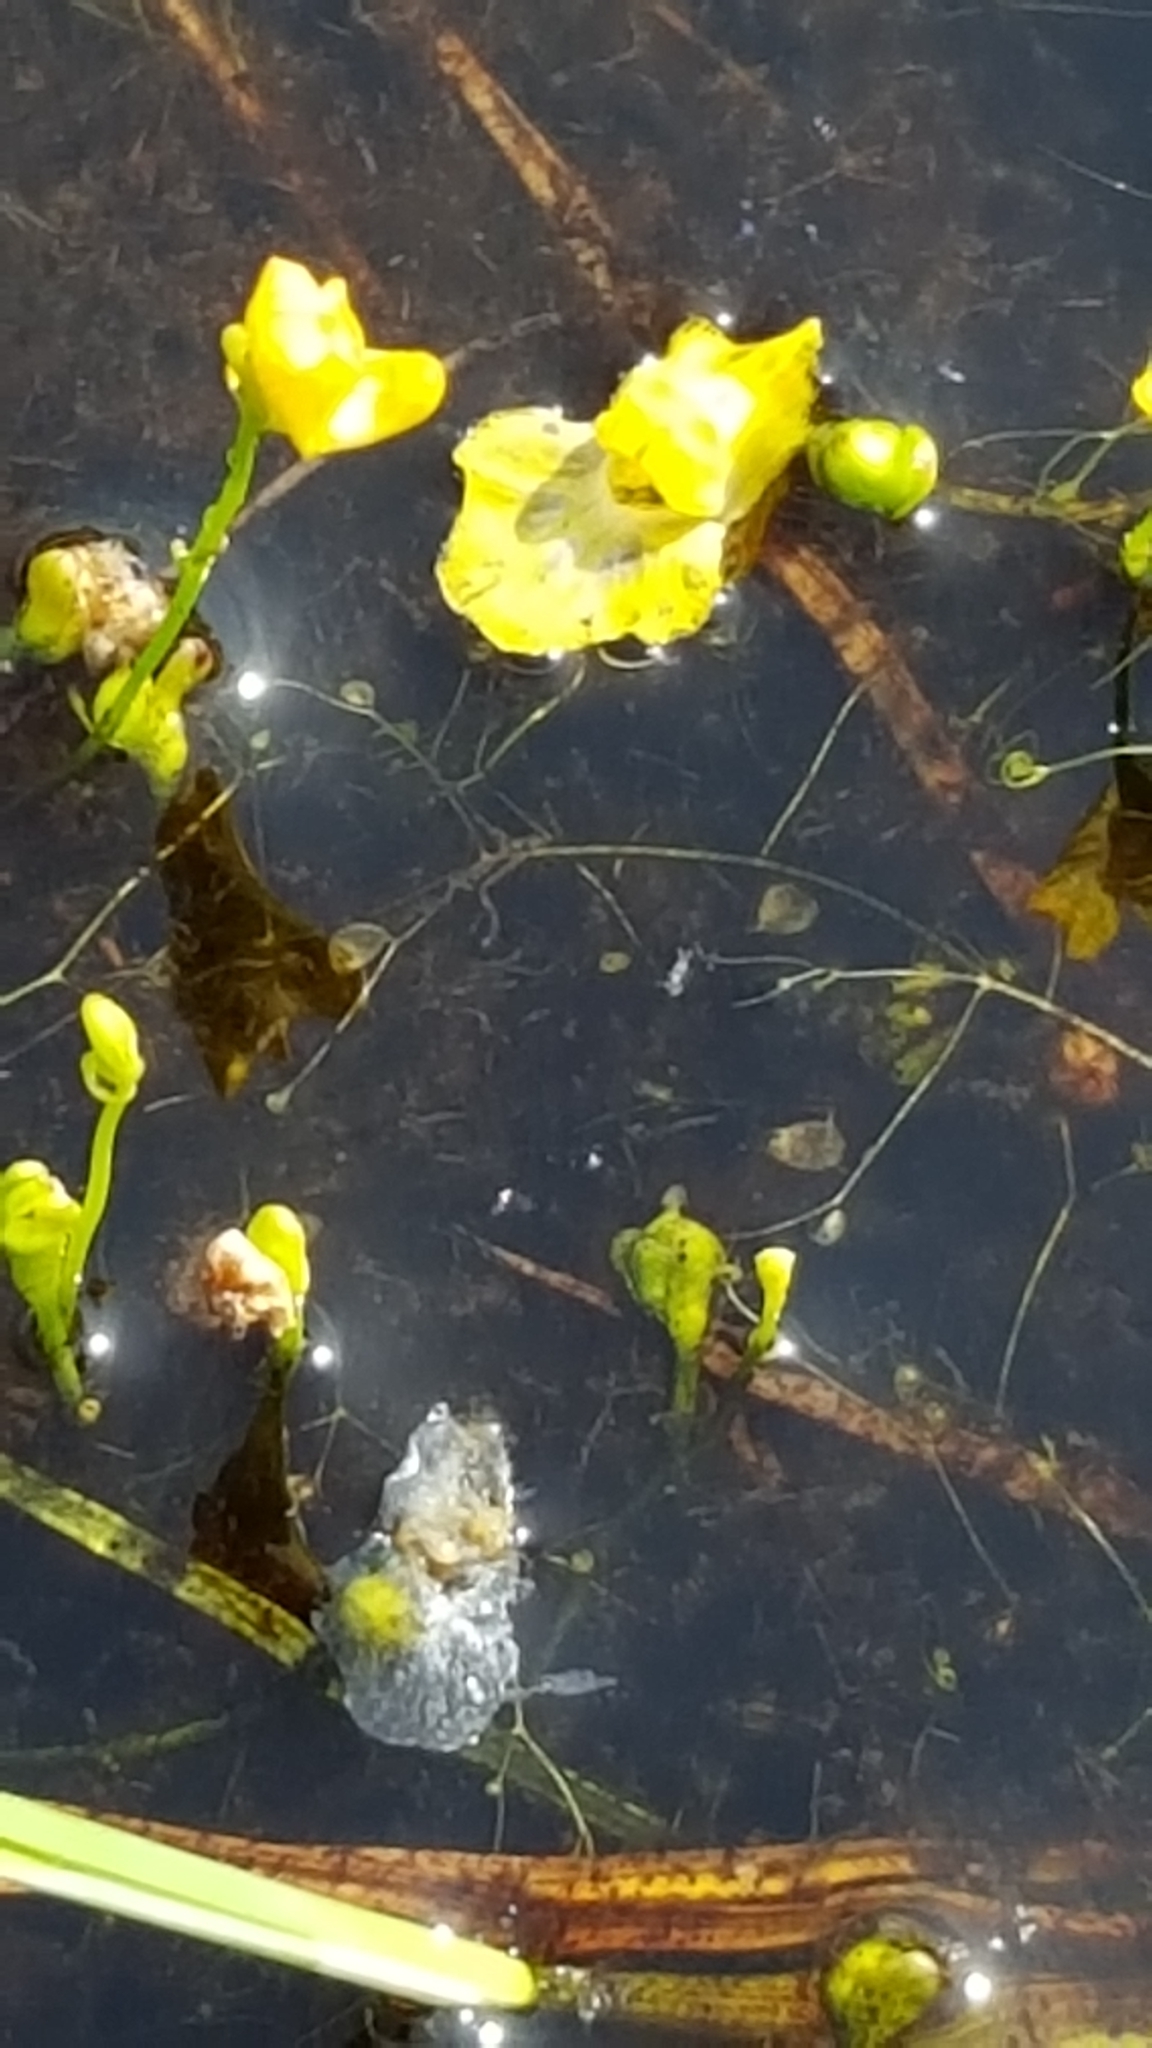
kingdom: Plantae
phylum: Tracheophyta
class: Magnoliopsida
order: Lamiales
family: Lentibulariaceae
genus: Utricularia
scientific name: Utricularia gibba
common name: Humped bladderwort
